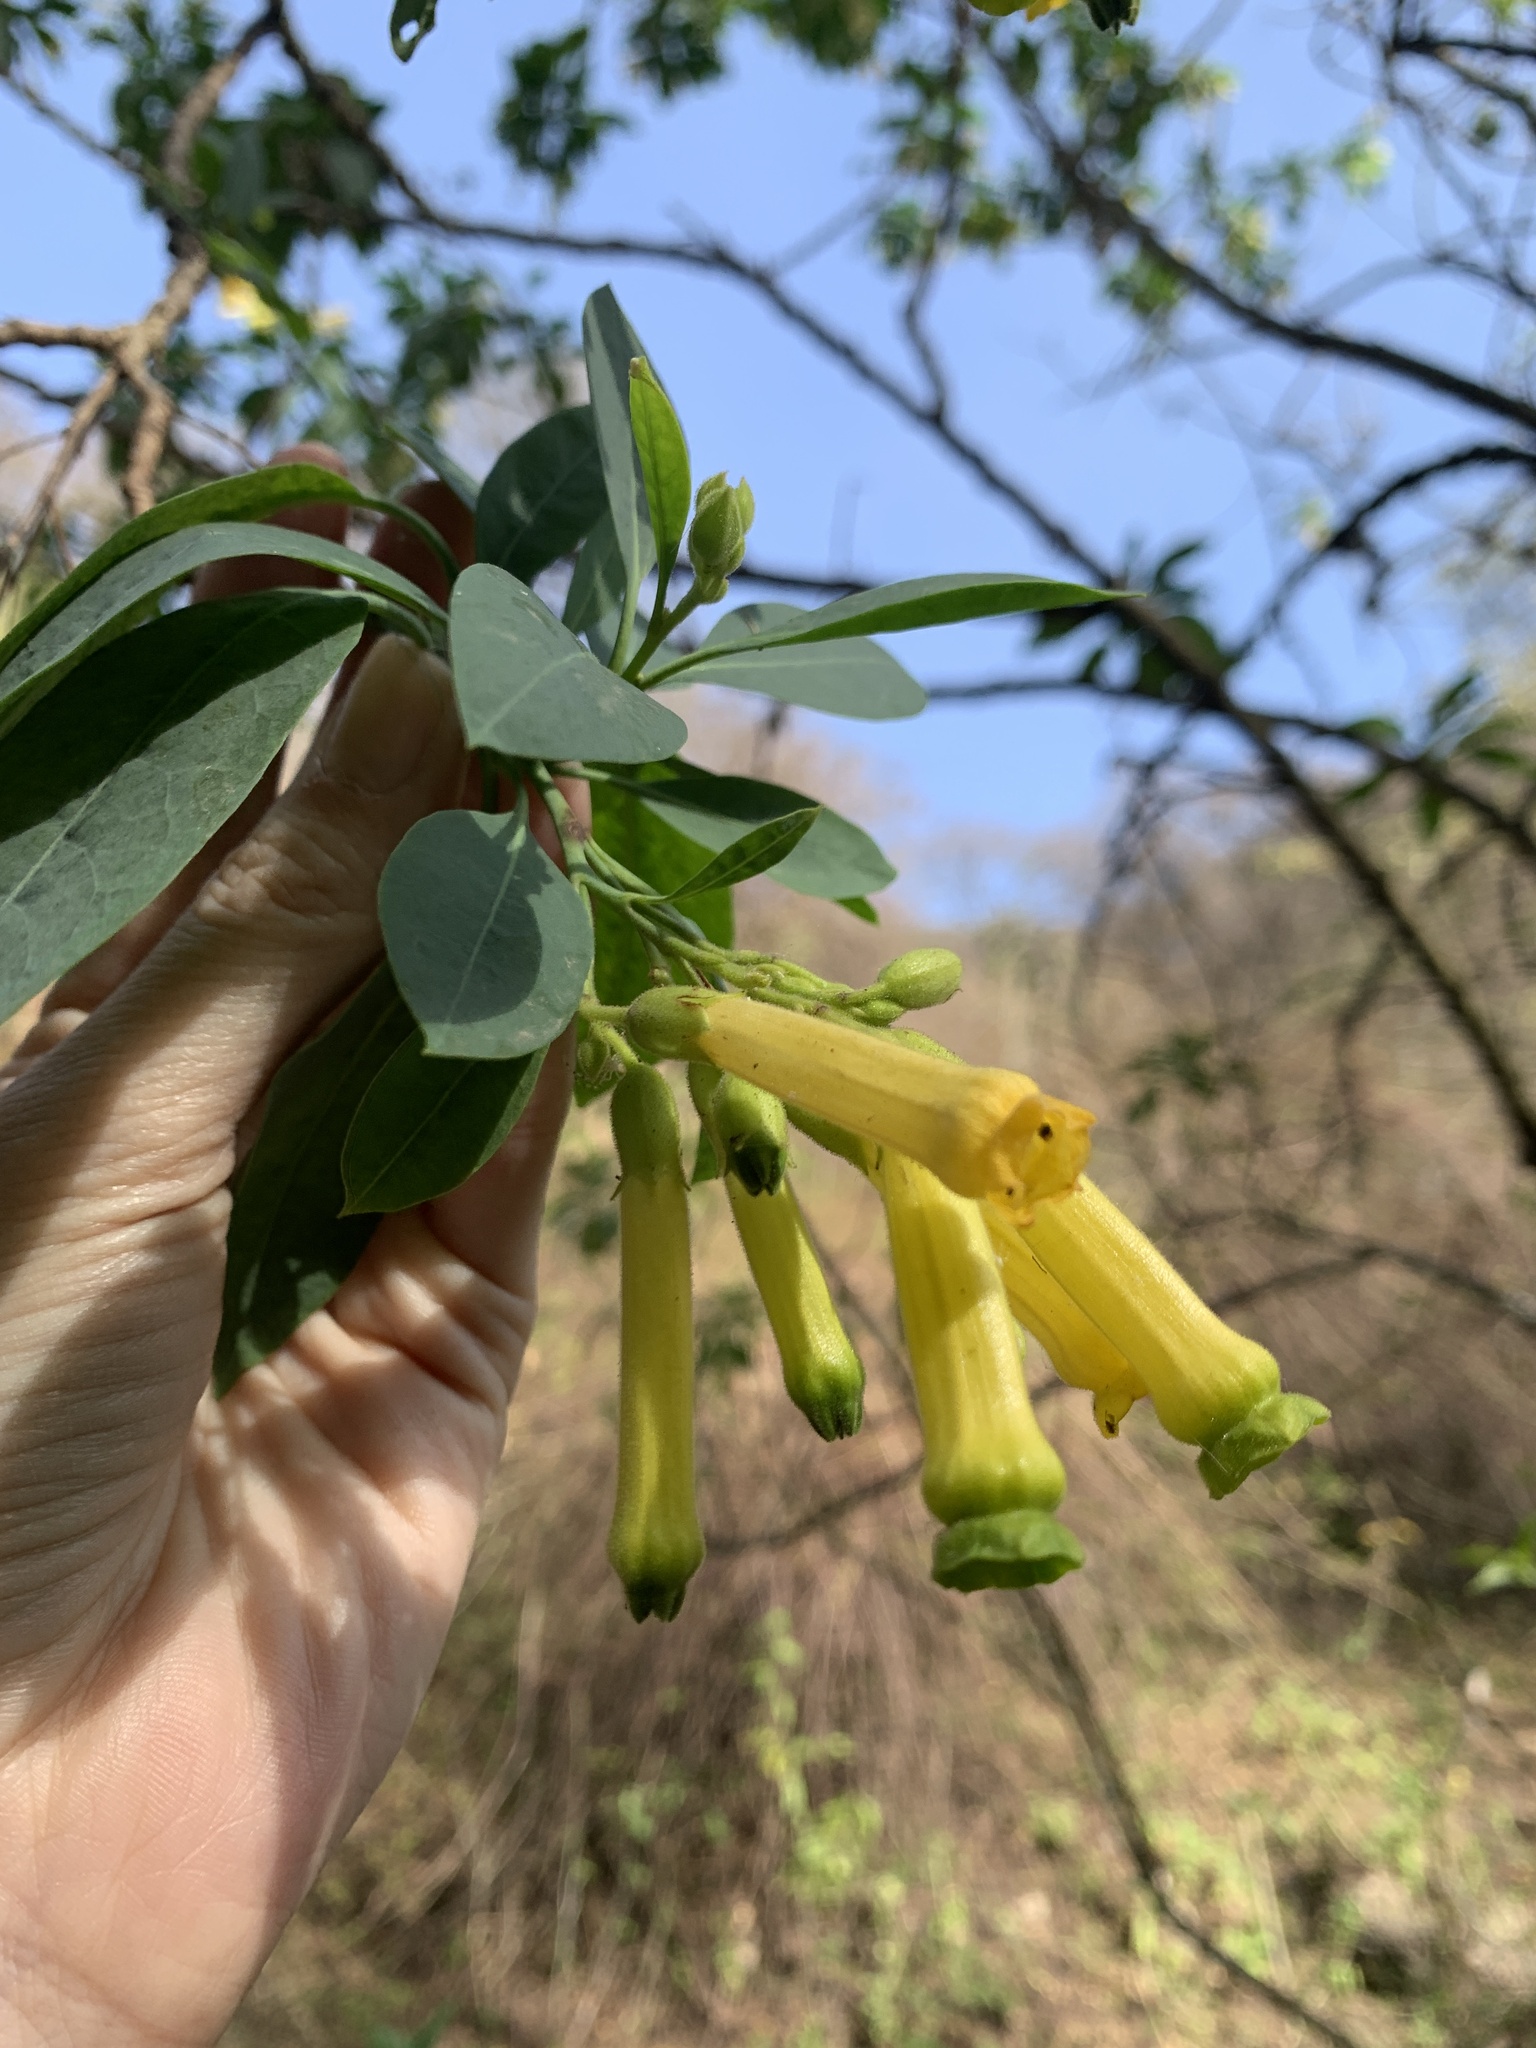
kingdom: Plantae
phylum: Tracheophyta
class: Magnoliopsida
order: Solanales
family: Solanaceae
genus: Nicotiana
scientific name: Nicotiana glauca
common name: Tree tobacco
